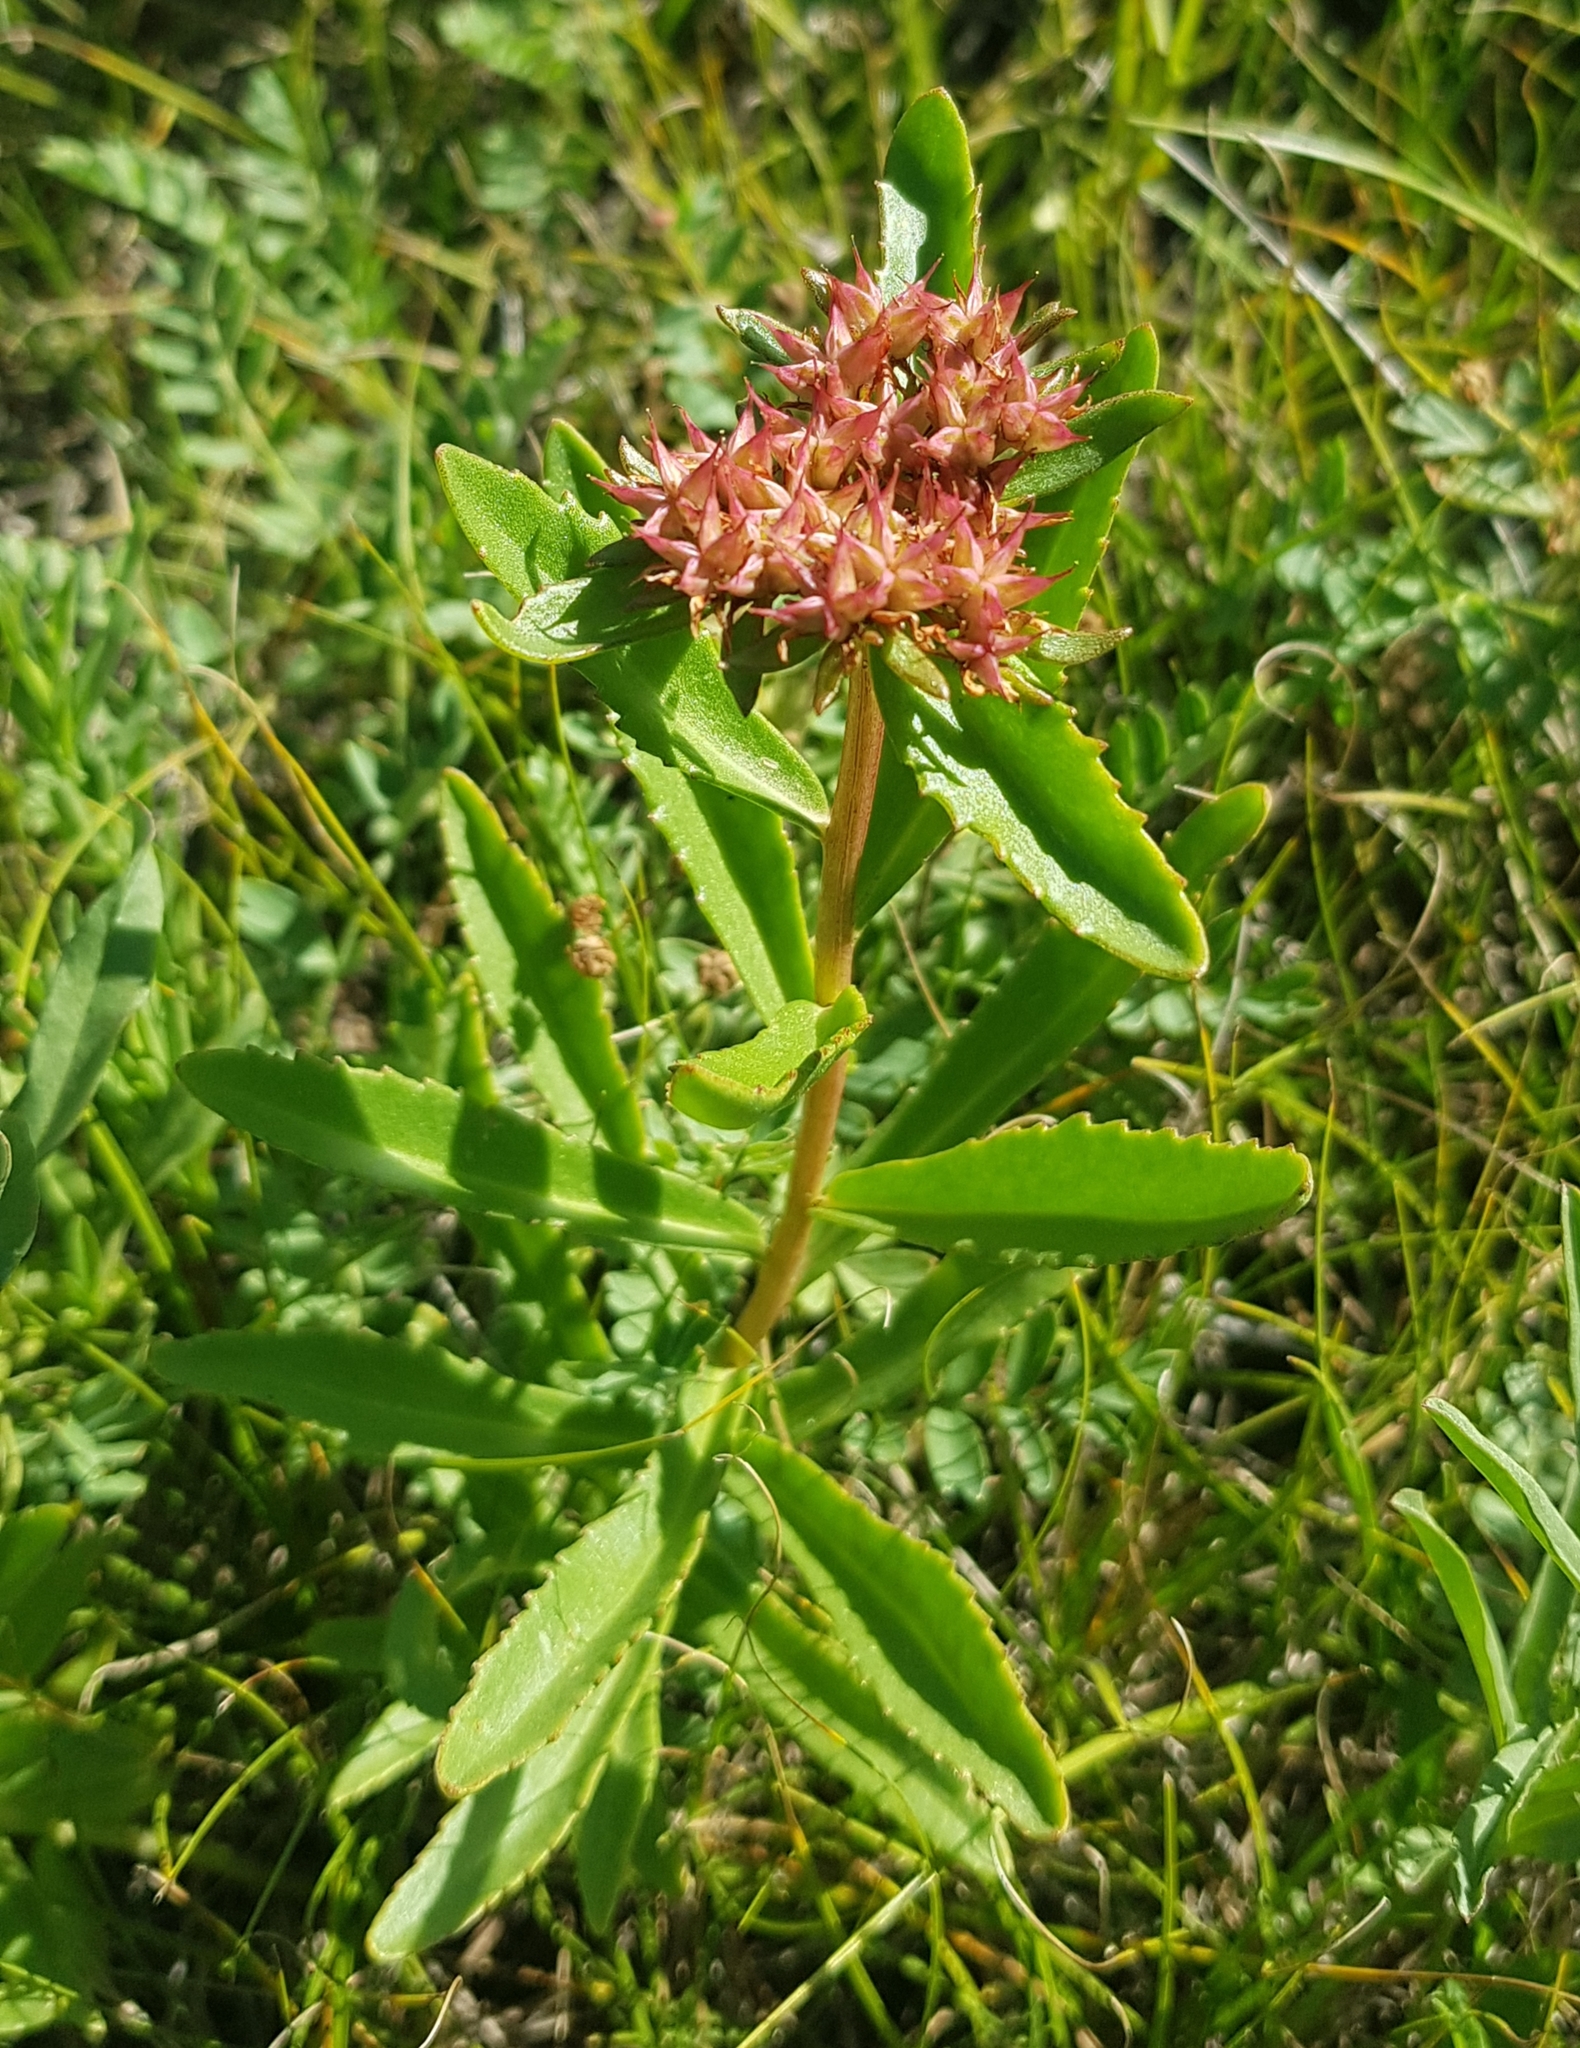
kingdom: Plantae
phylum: Tracheophyta
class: Magnoliopsida
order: Saxifragales
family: Crassulaceae
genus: Phedimus
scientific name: Phedimus aizoon
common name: Orpin aizoon
